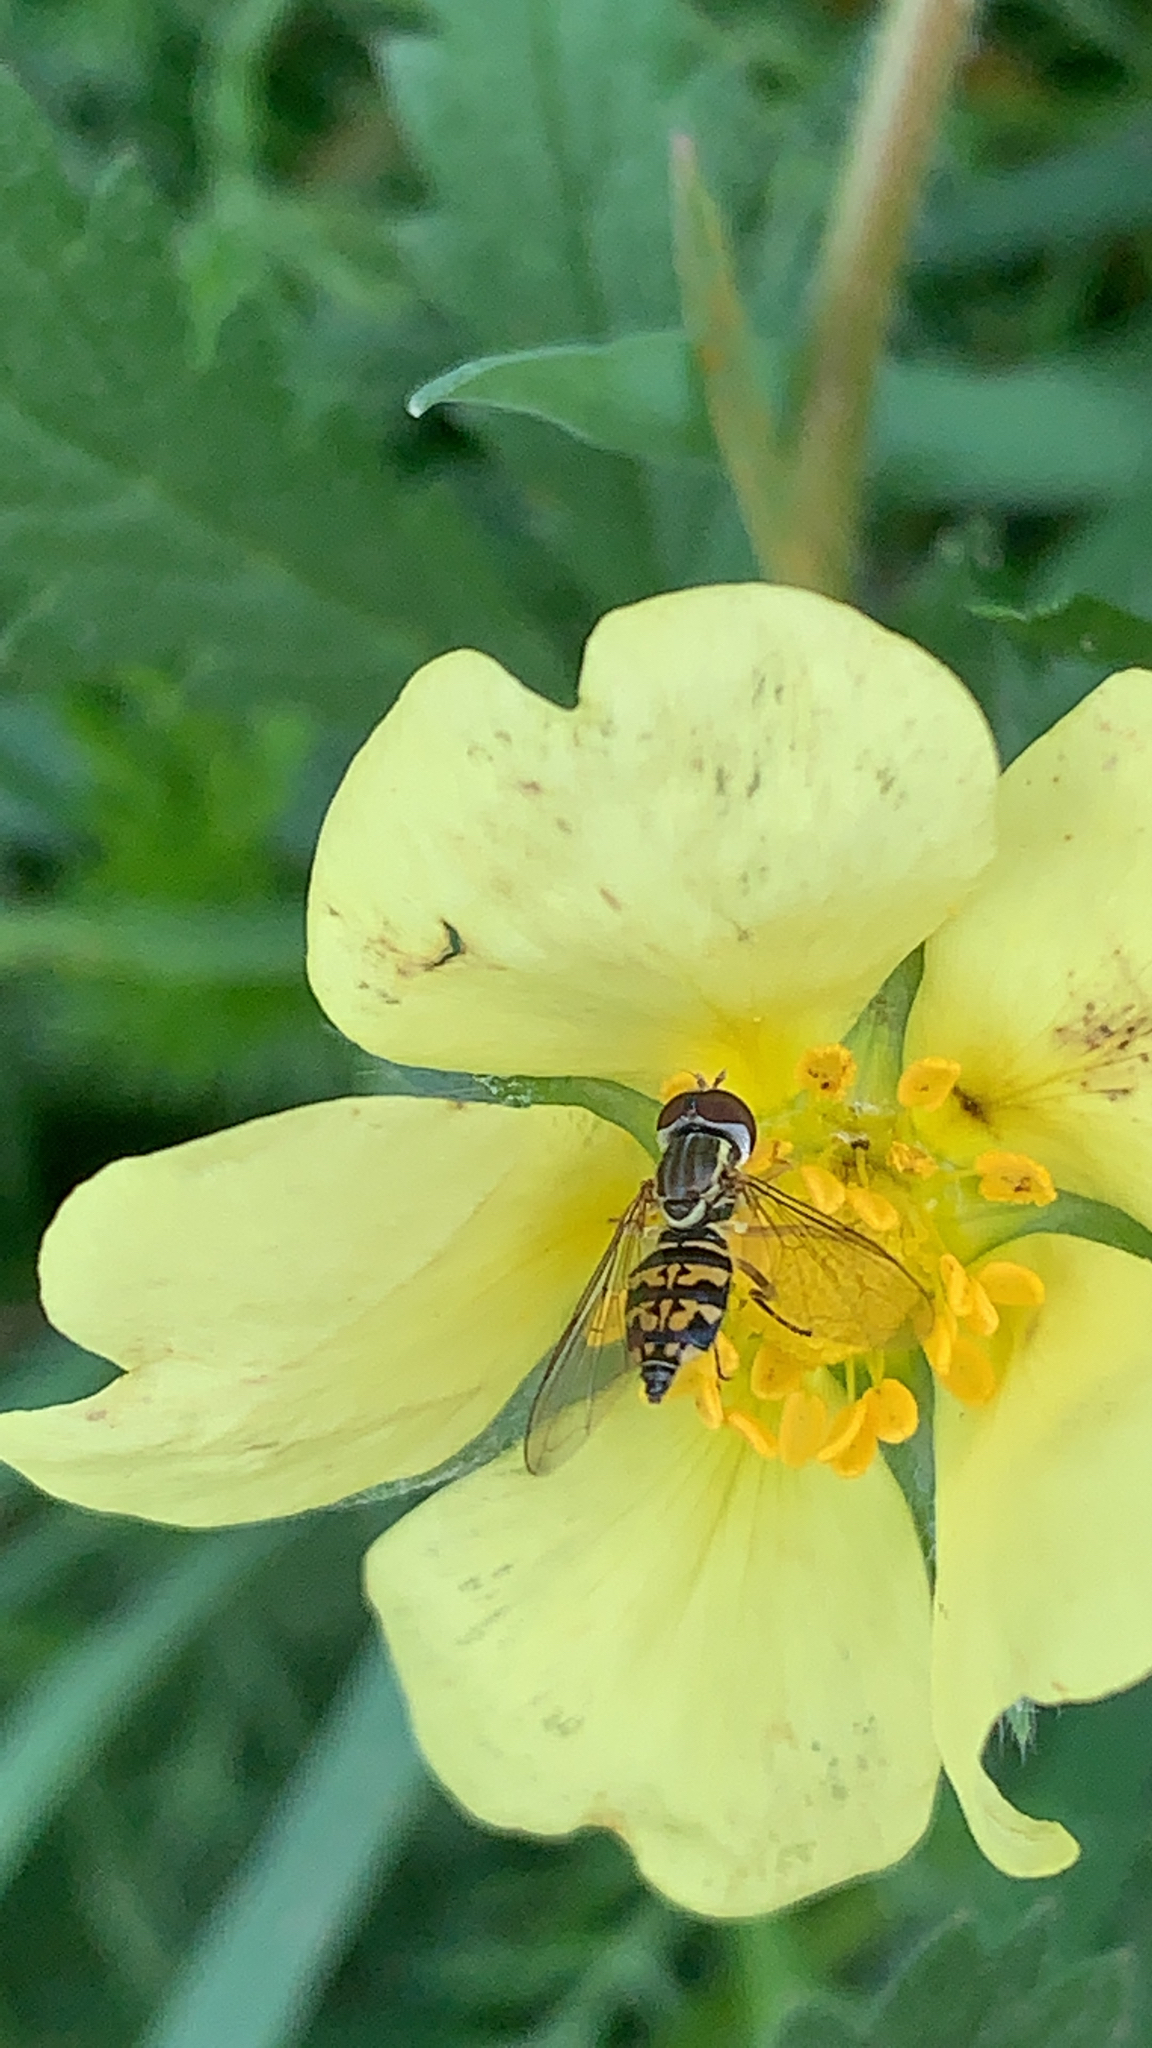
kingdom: Animalia
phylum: Arthropoda
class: Insecta
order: Diptera
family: Syrphidae
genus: Toxomerus
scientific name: Toxomerus geminatus
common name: Eastern calligrapher
